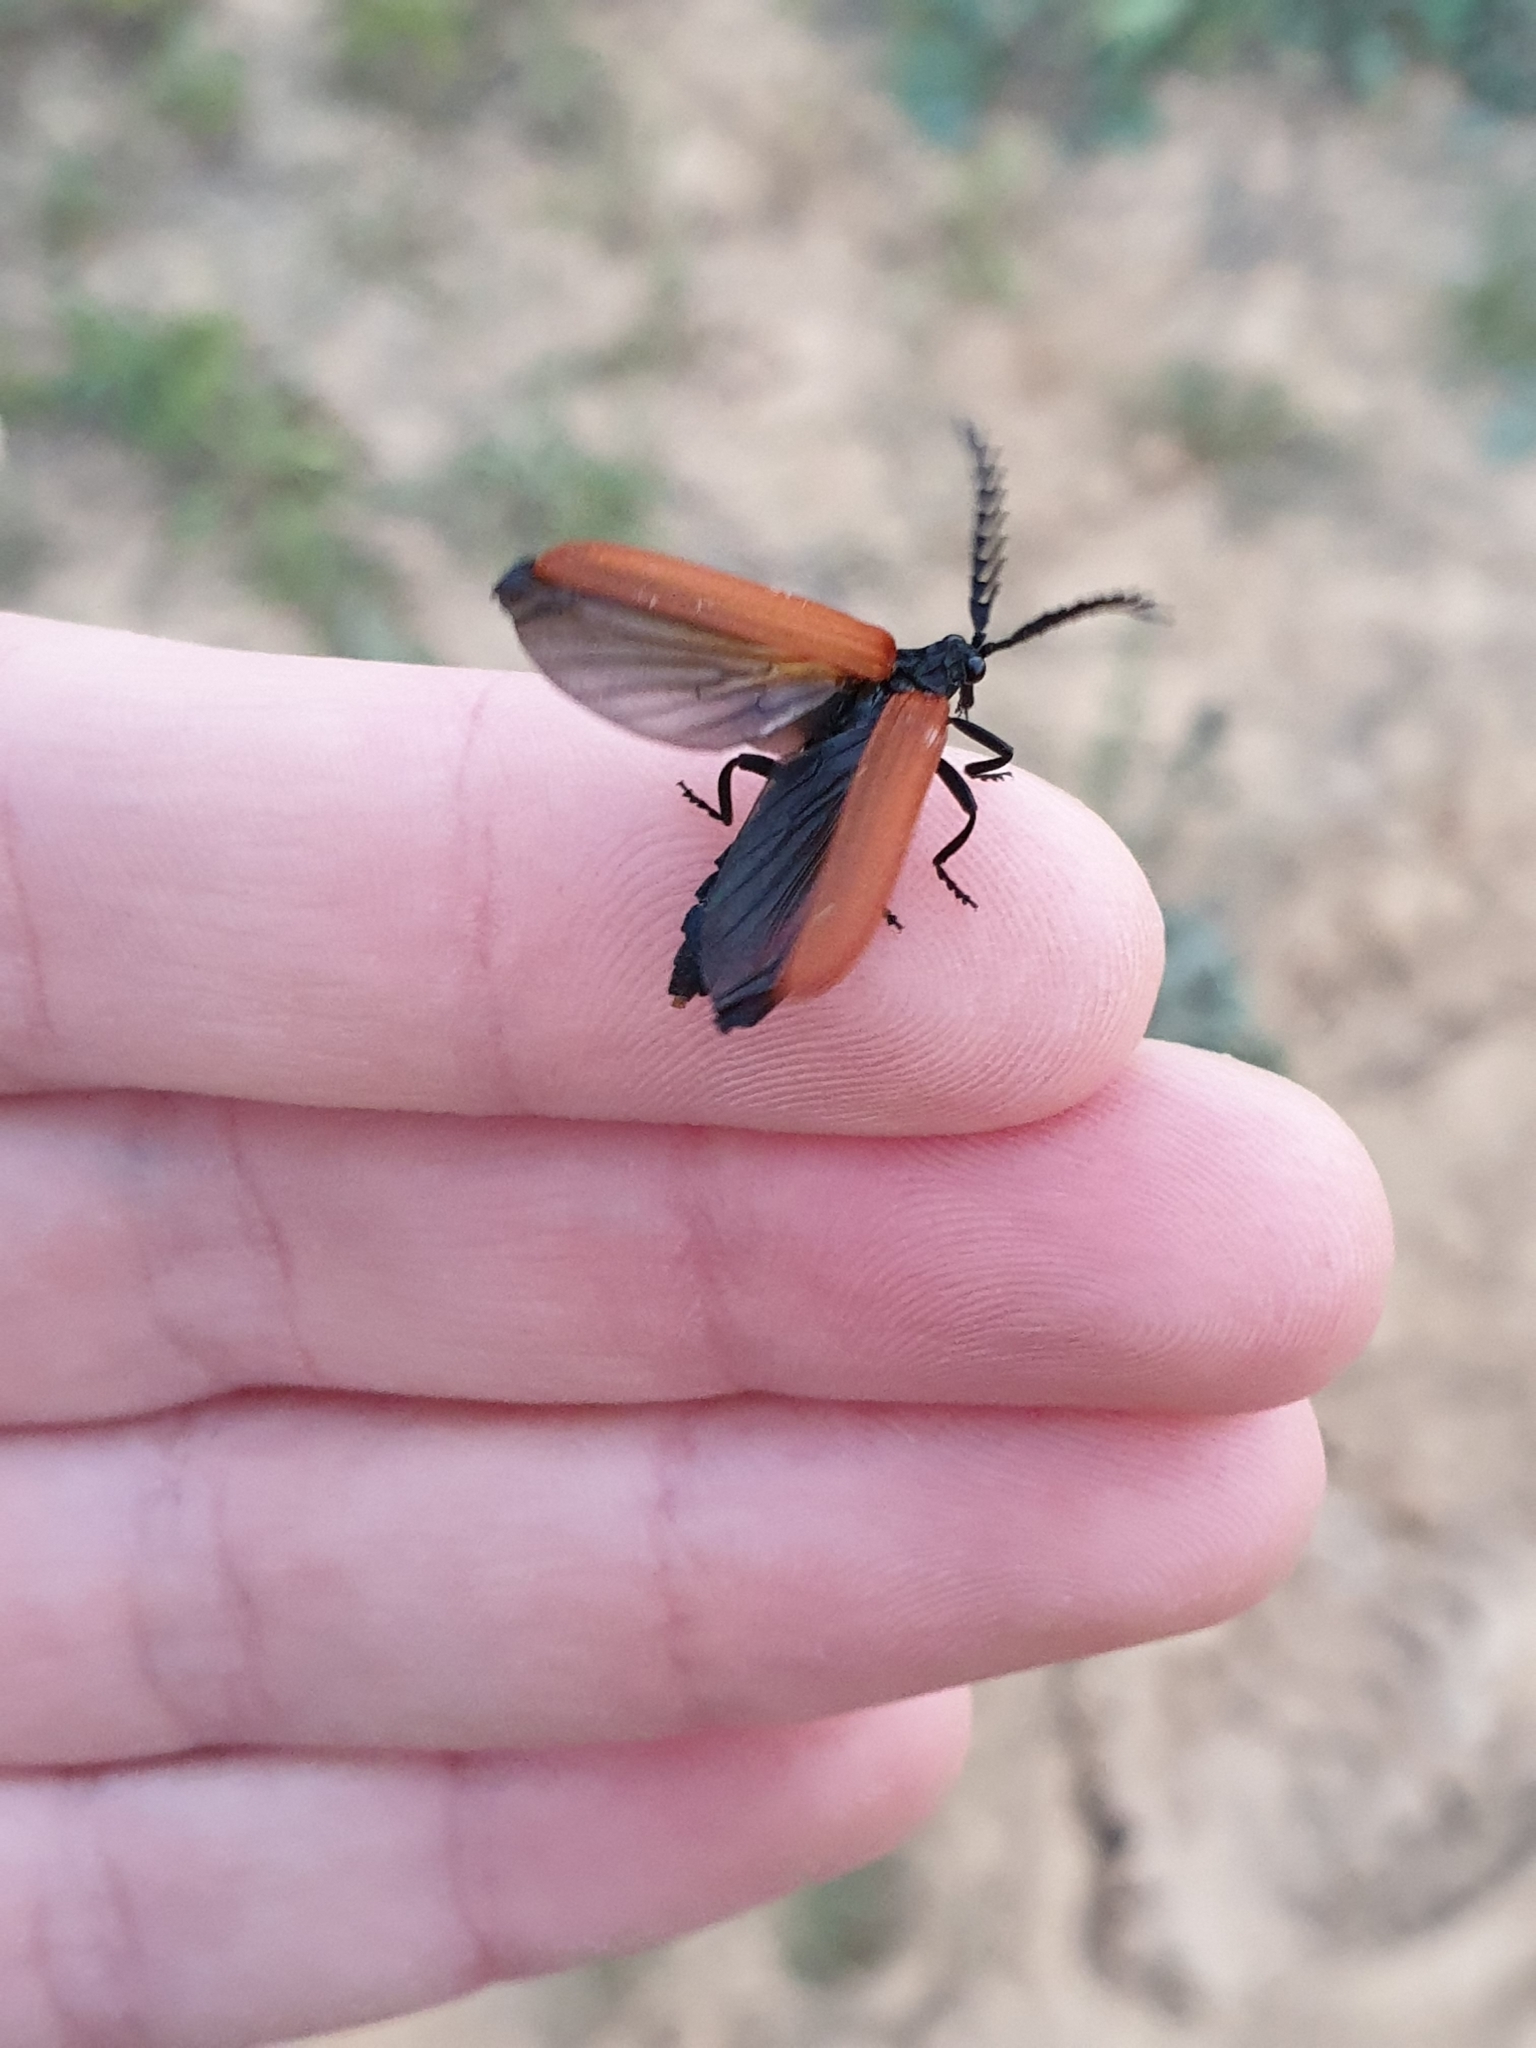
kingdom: Animalia
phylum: Arthropoda
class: Insecta
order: Coleoptera
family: Lycidae
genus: Porrostoma
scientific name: Porrostoma rhipidium
